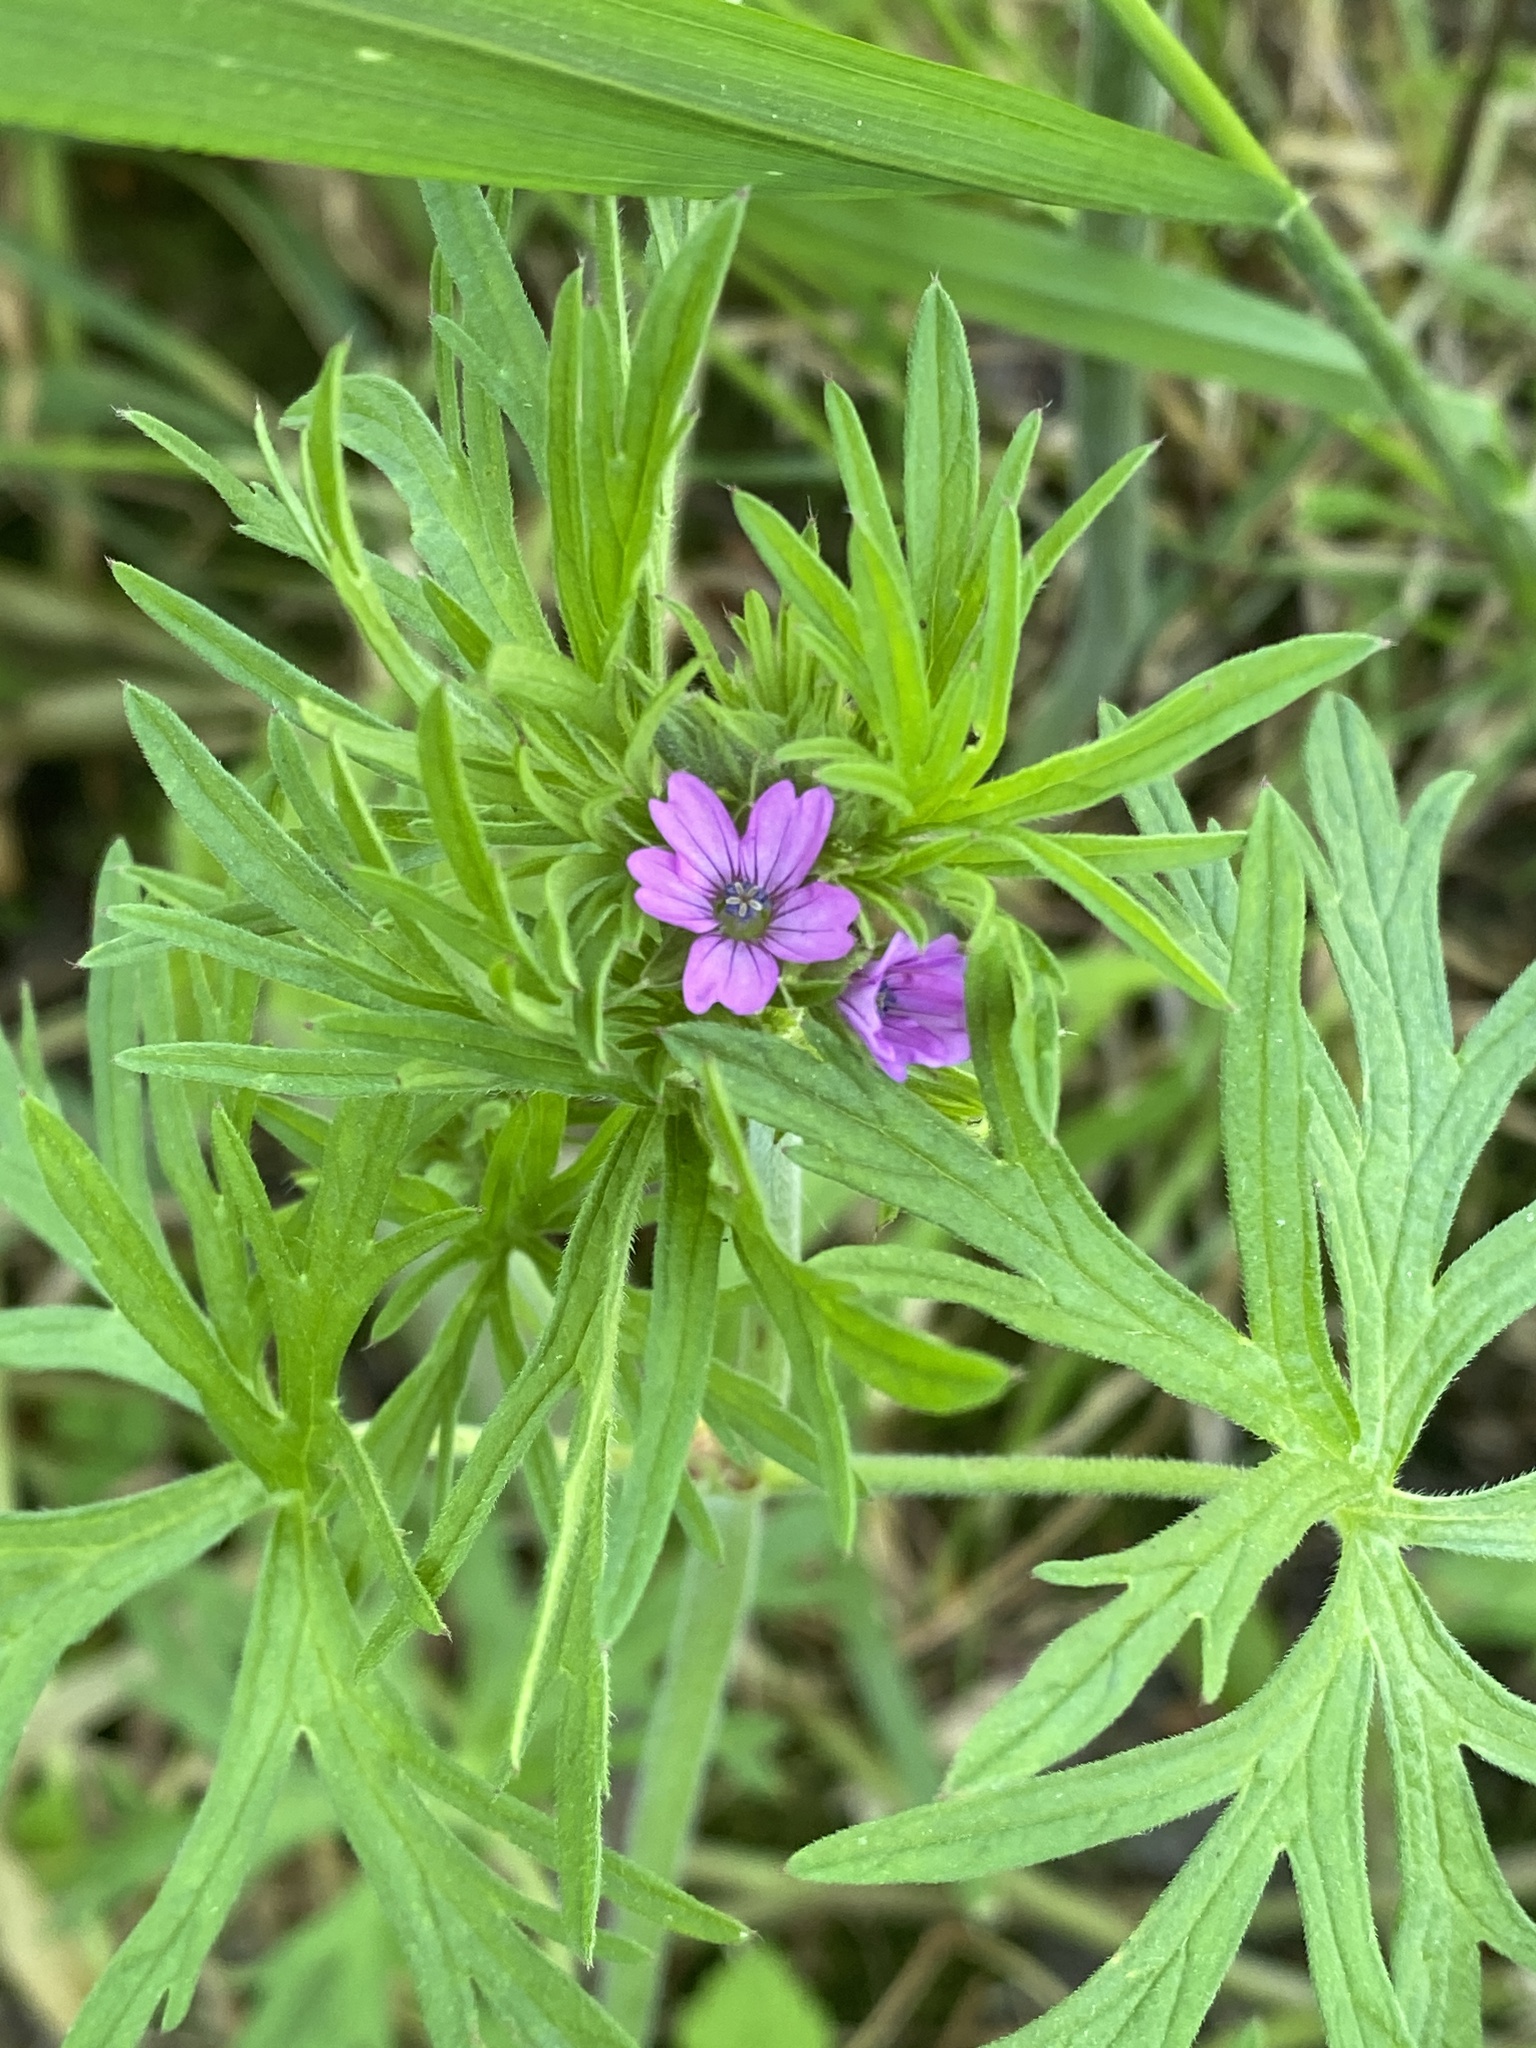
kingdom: Plantae
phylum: Tracheophyta
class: Magnoliopsida
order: Geraniales
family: Geraniaceae
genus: Geranium
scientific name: Geranium dissectum
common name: Cut-leaved crane's-bill
